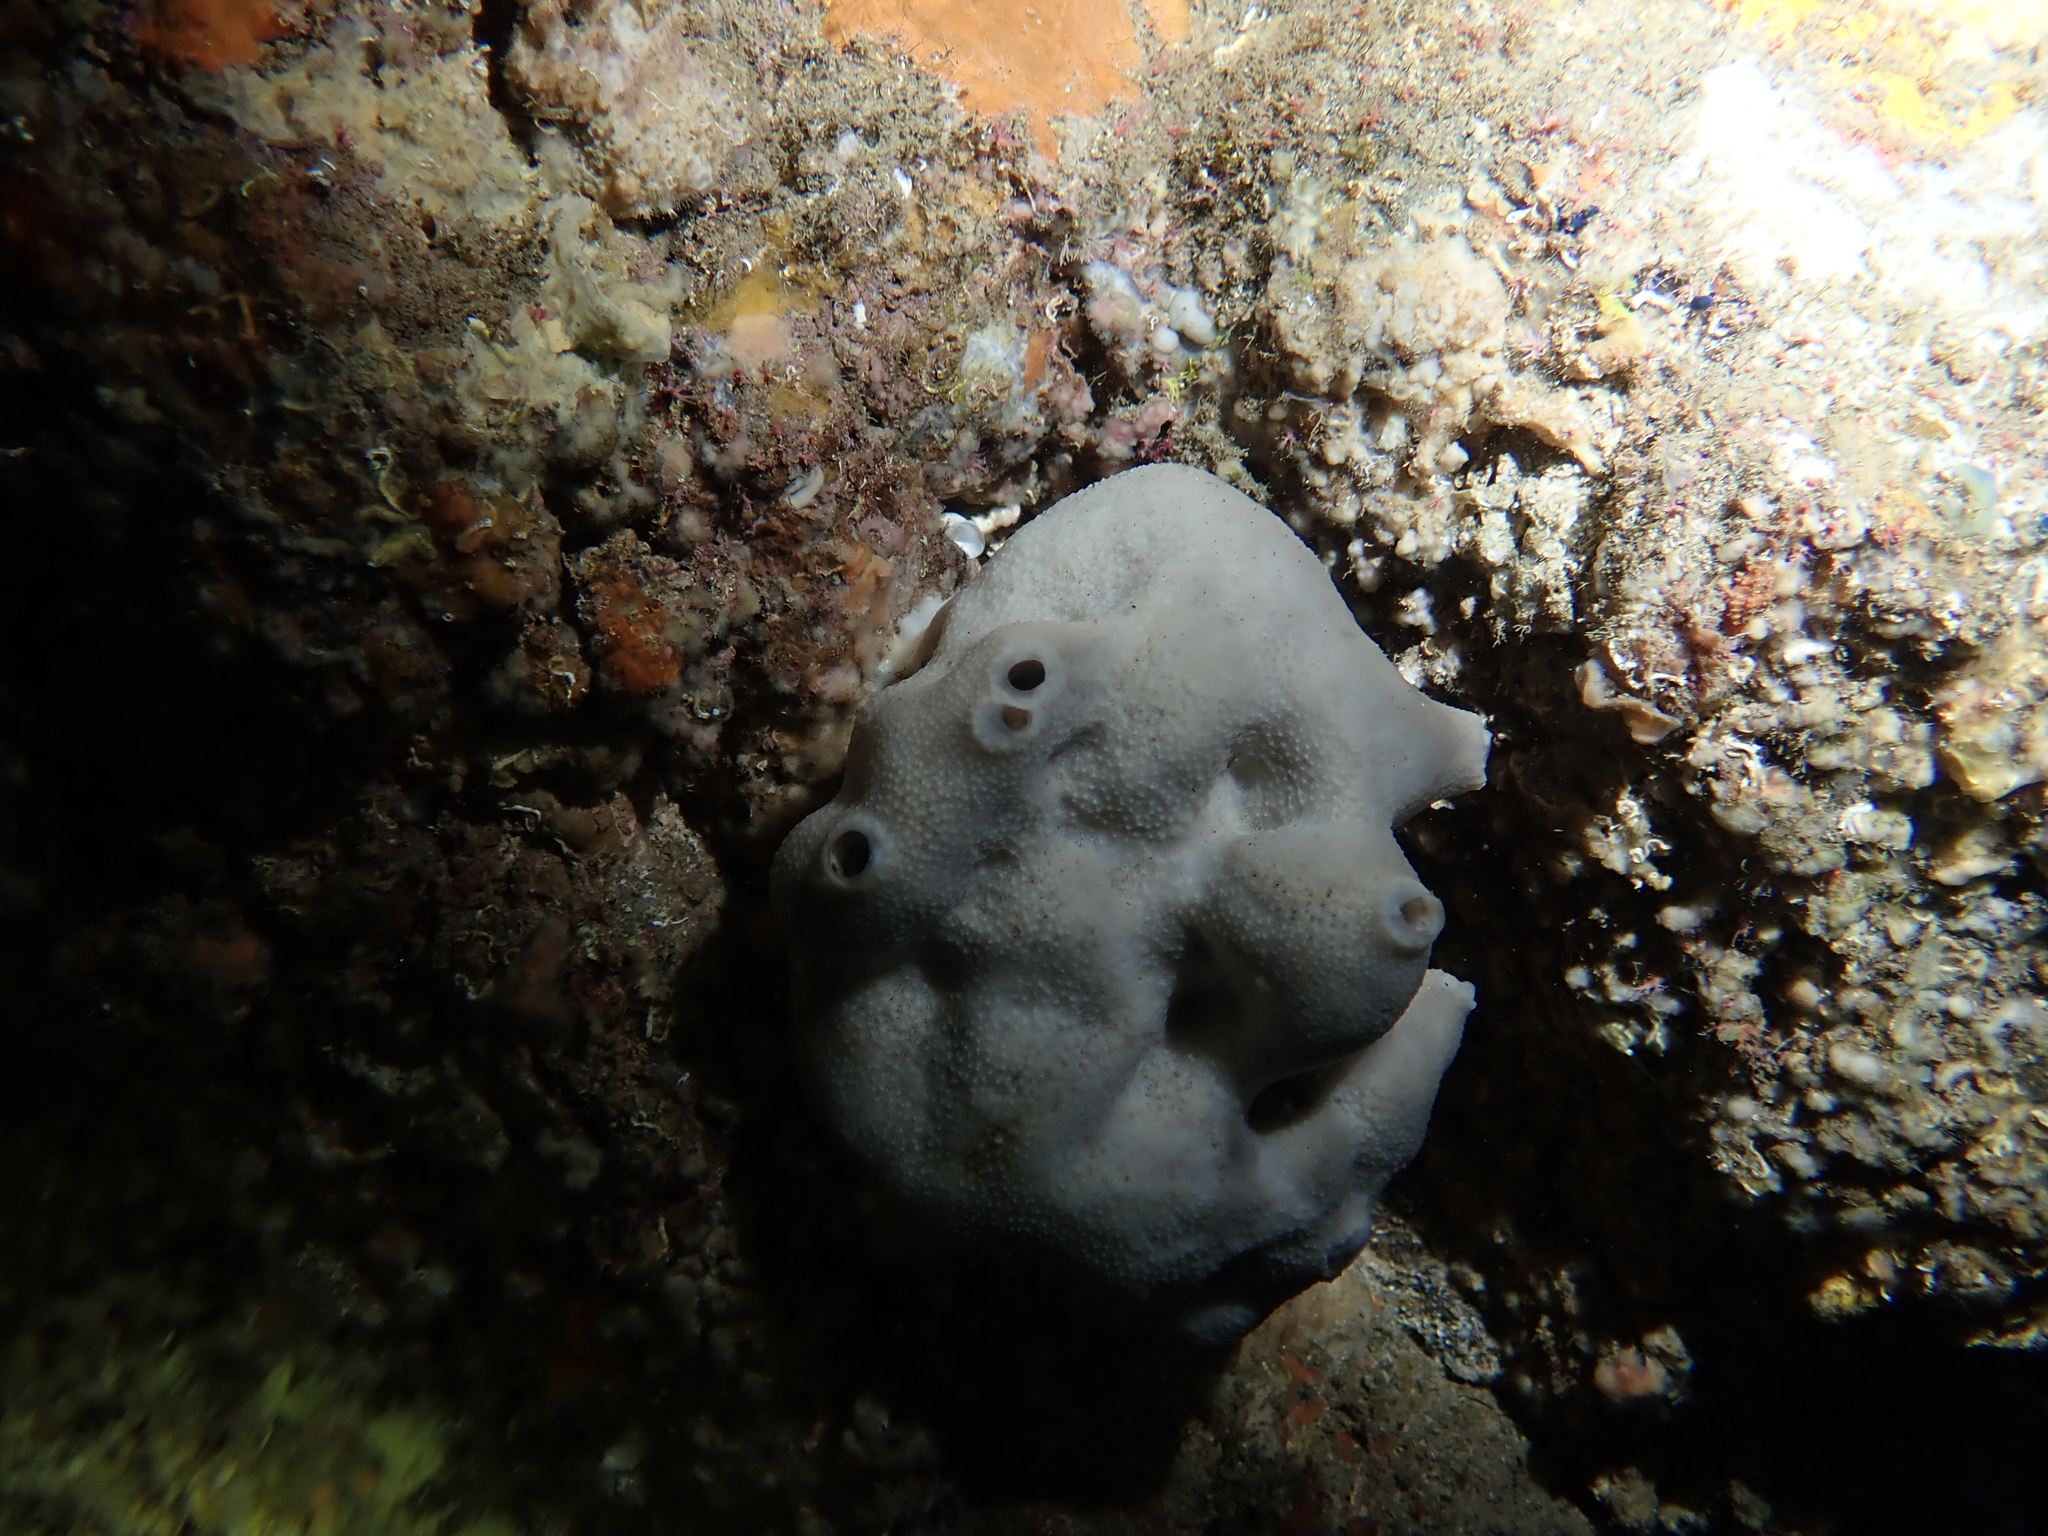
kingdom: Animalia
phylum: Porifera
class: Demospongiae
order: Dictyoceratida
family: Irciniidae
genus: Ircinia
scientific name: Ircinia oros
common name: Grey leather sponge
